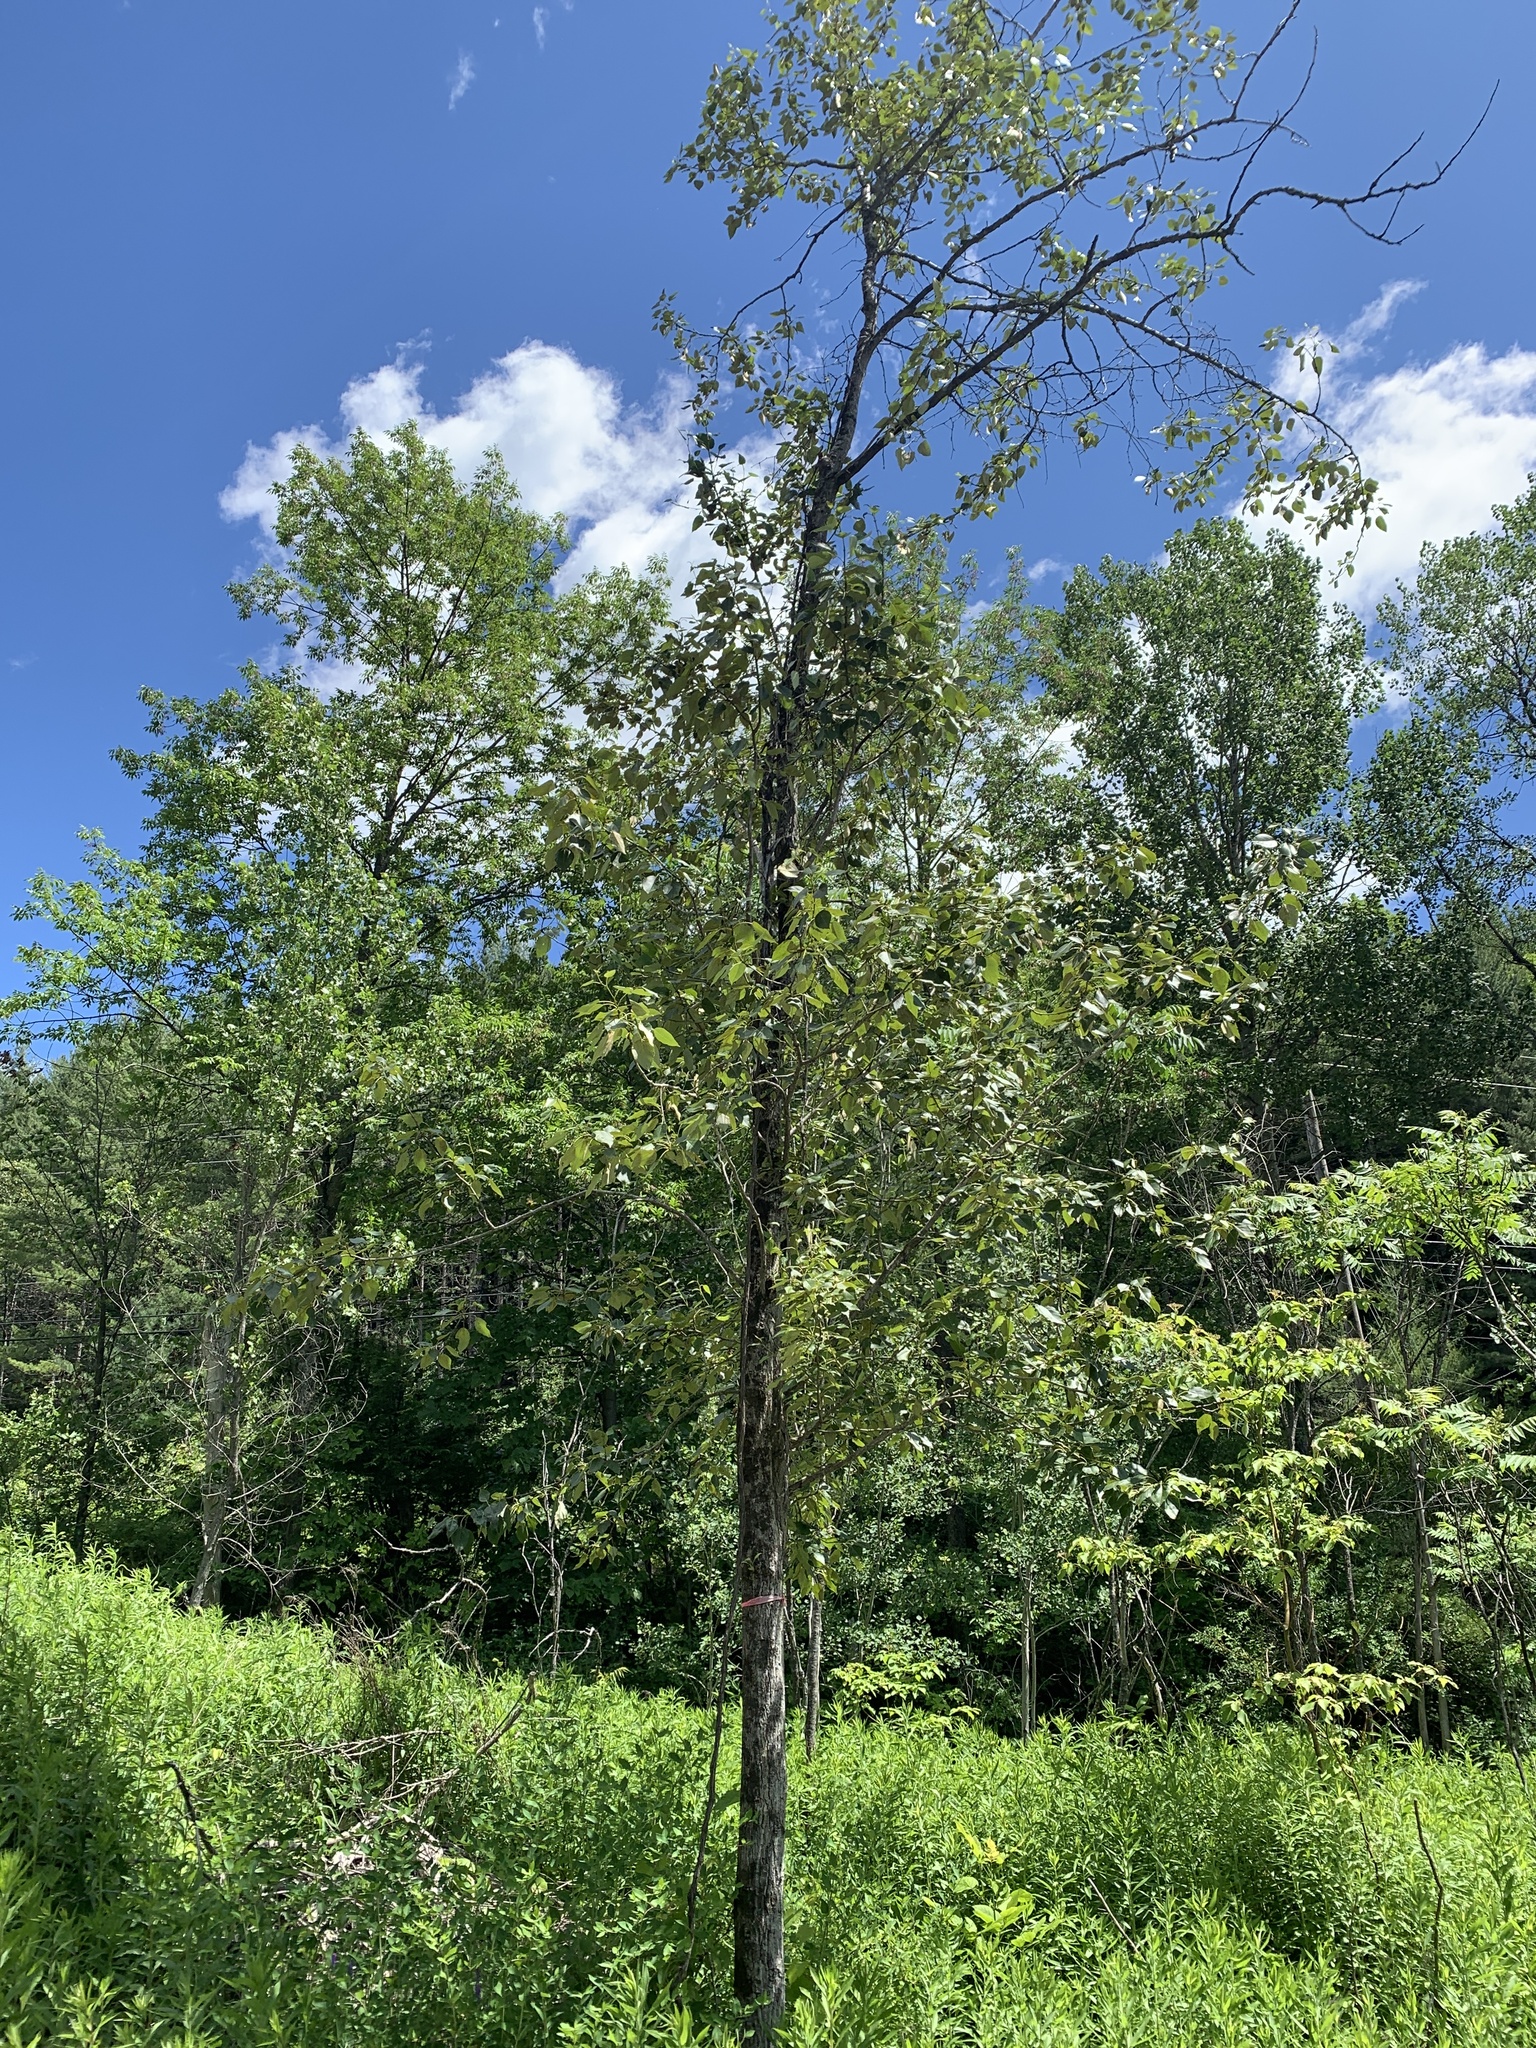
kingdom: Plantae
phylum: Tracheophyta
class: Magnoliopsida
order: Malpighiales
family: Salicaceae
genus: Populus
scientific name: Populus balsamifera
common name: Balsam poplar
